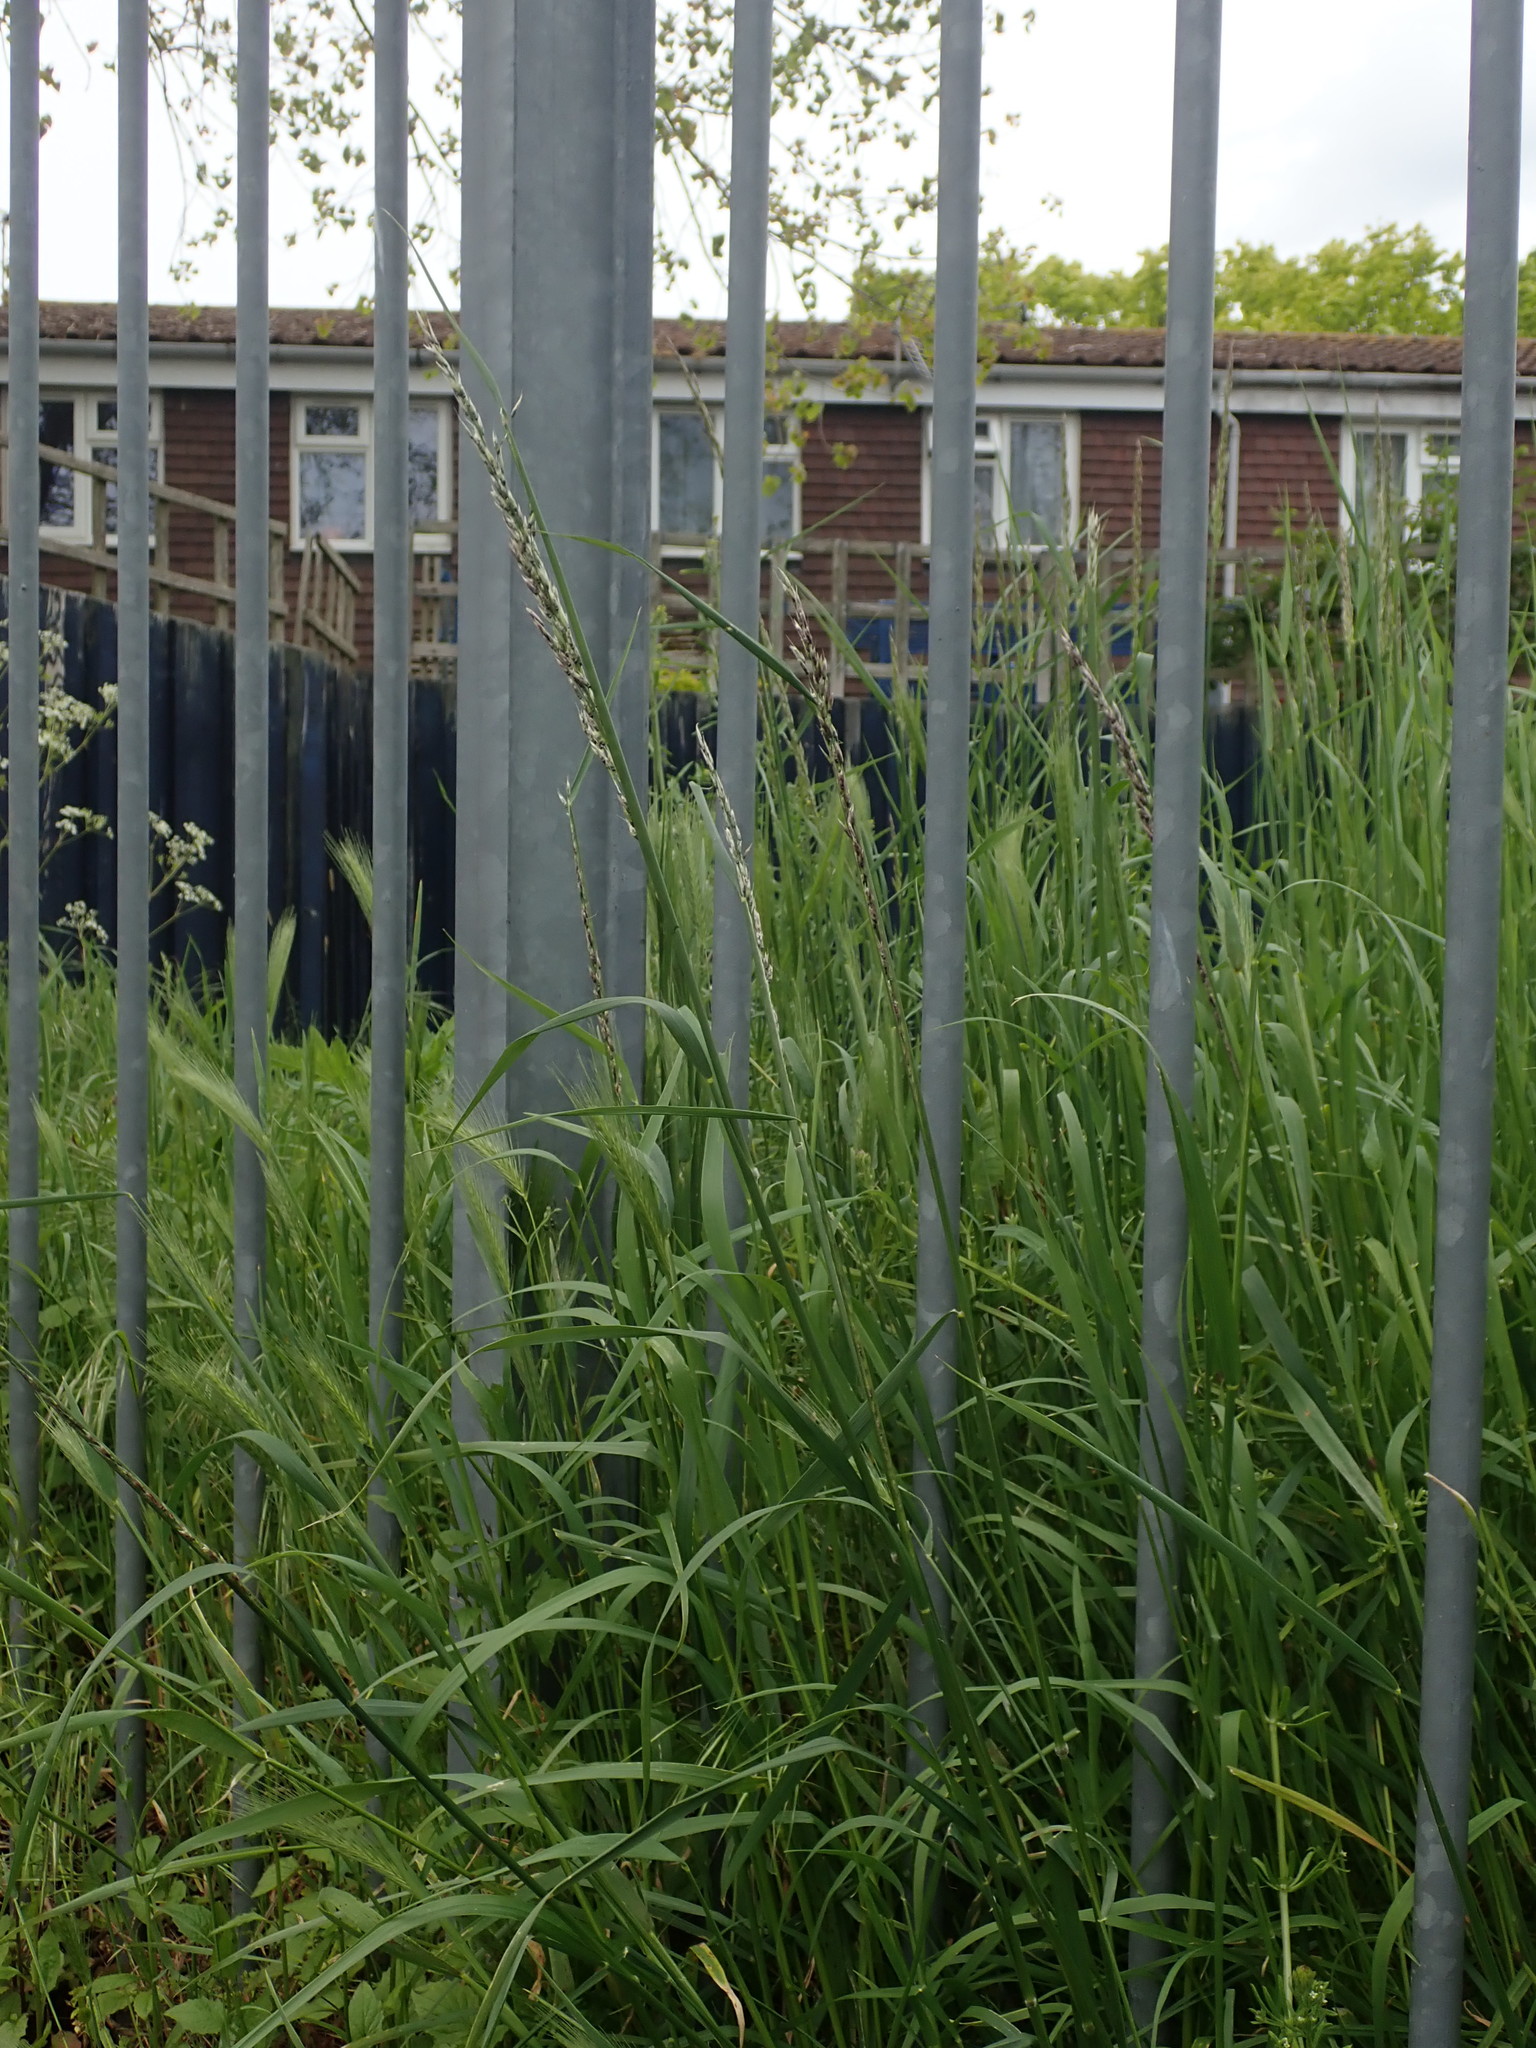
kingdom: Plantae
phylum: Tracheophyta
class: Liliopsida
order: Poales
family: Poaceae
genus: Arrhenatherum
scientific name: Arrhenatherum elatius
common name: Tall oatgrass
